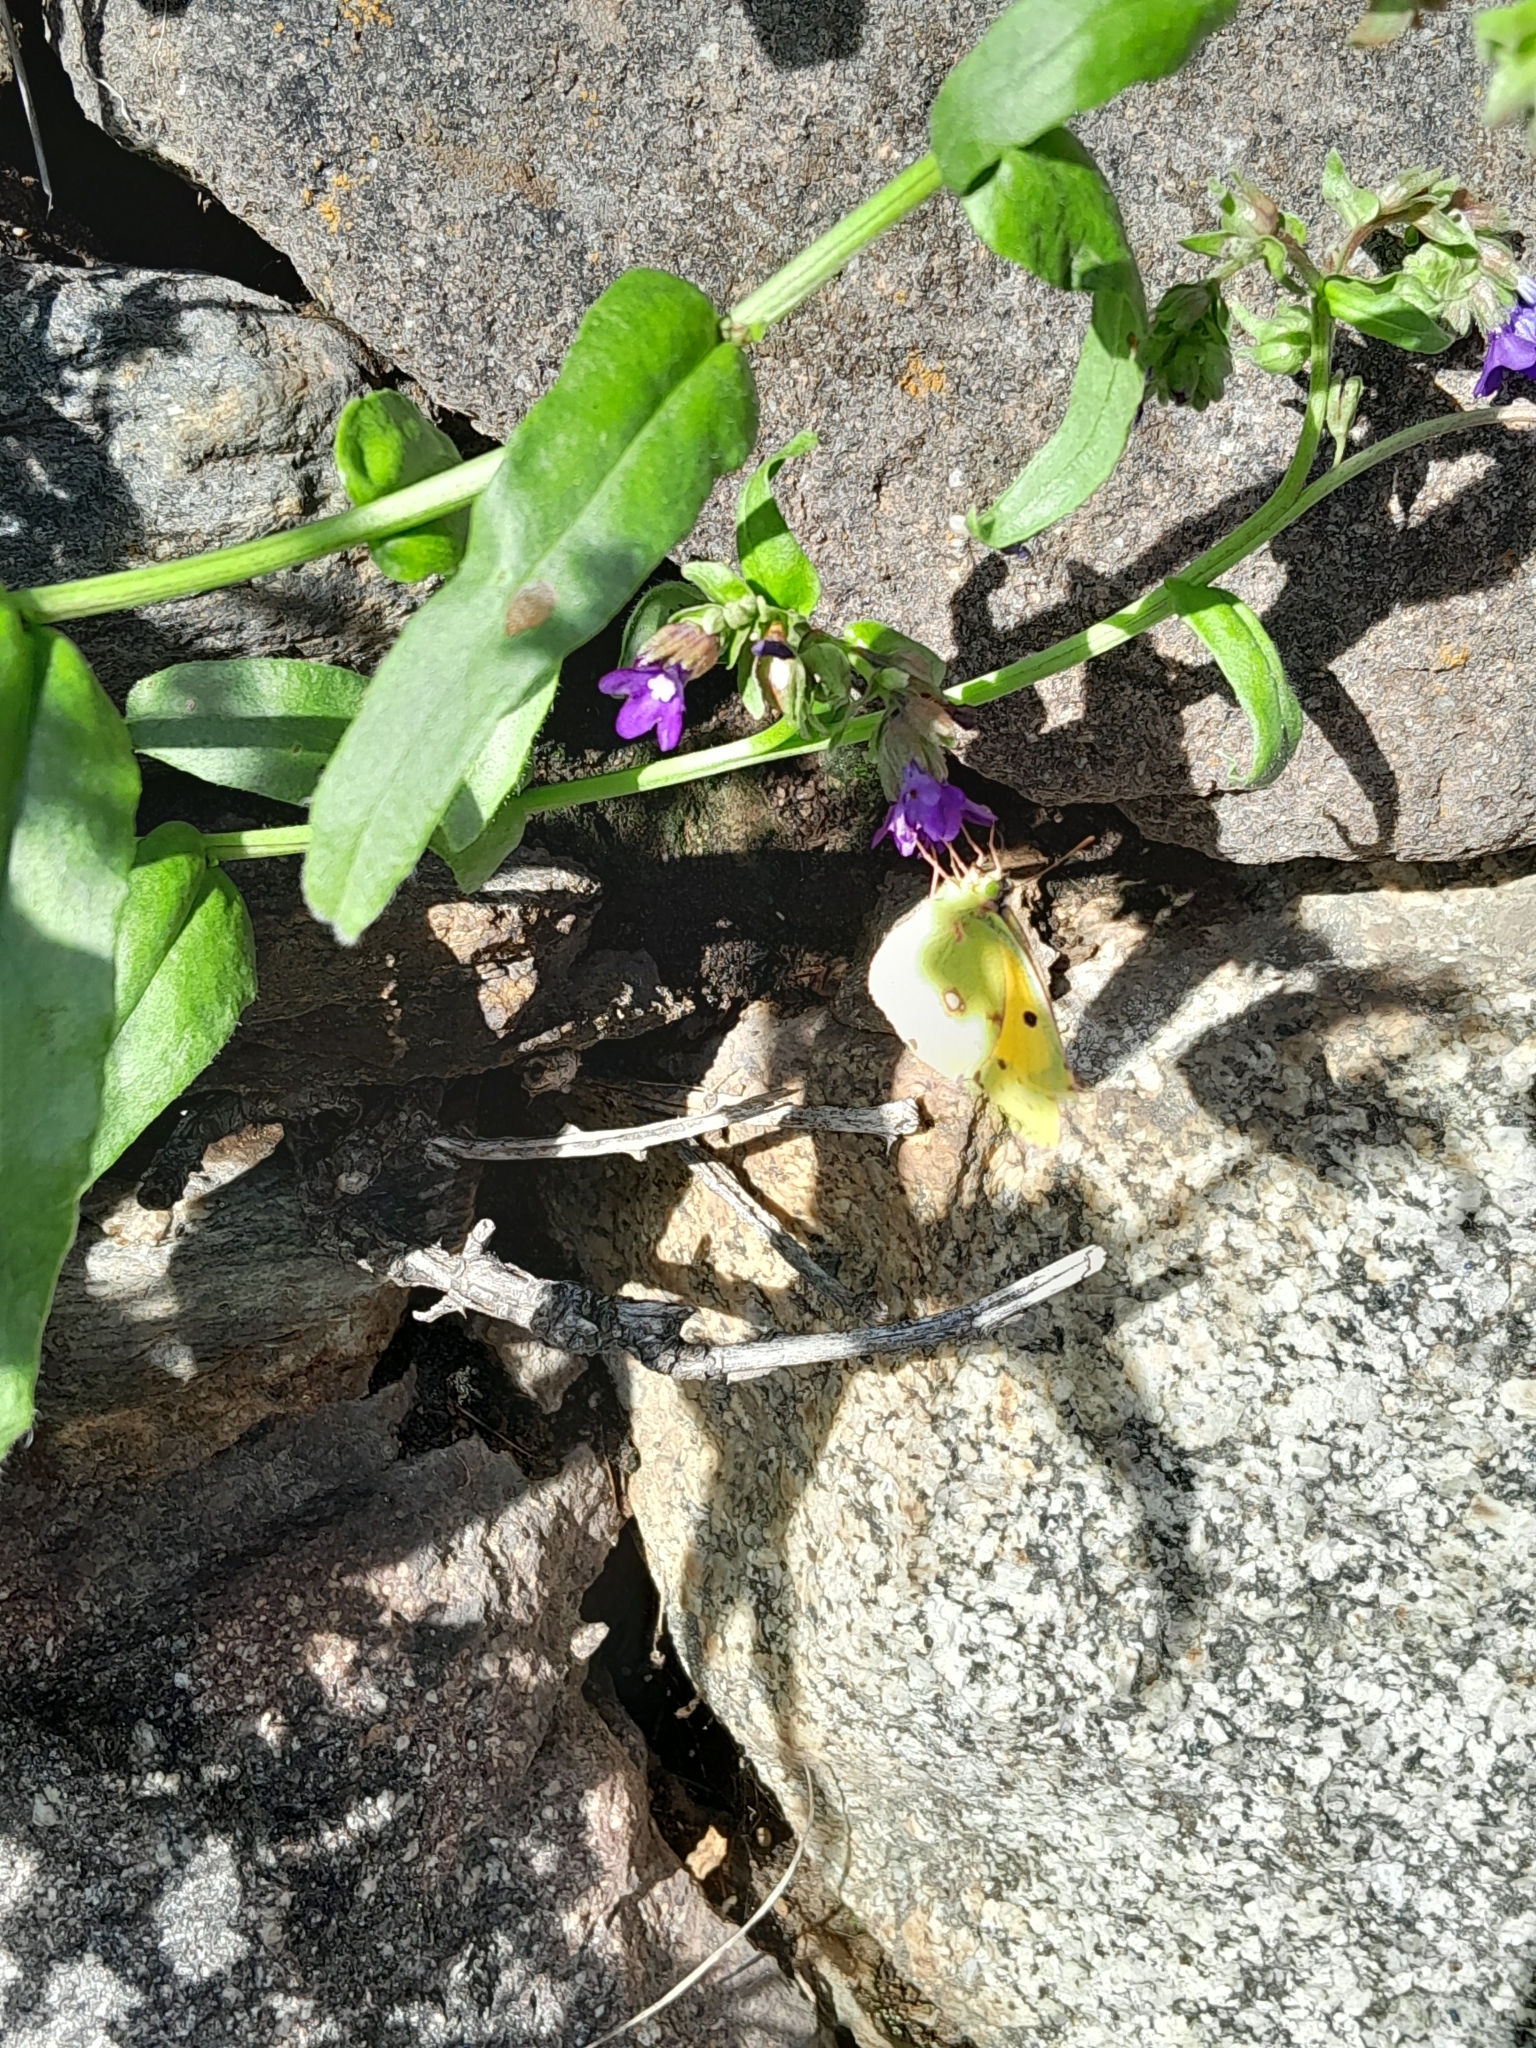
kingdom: Animalia
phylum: Arthropoda
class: Insecta
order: Lepidoptera
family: Pieridae
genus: Colias
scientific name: Colias croceus
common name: Clouded yellow
